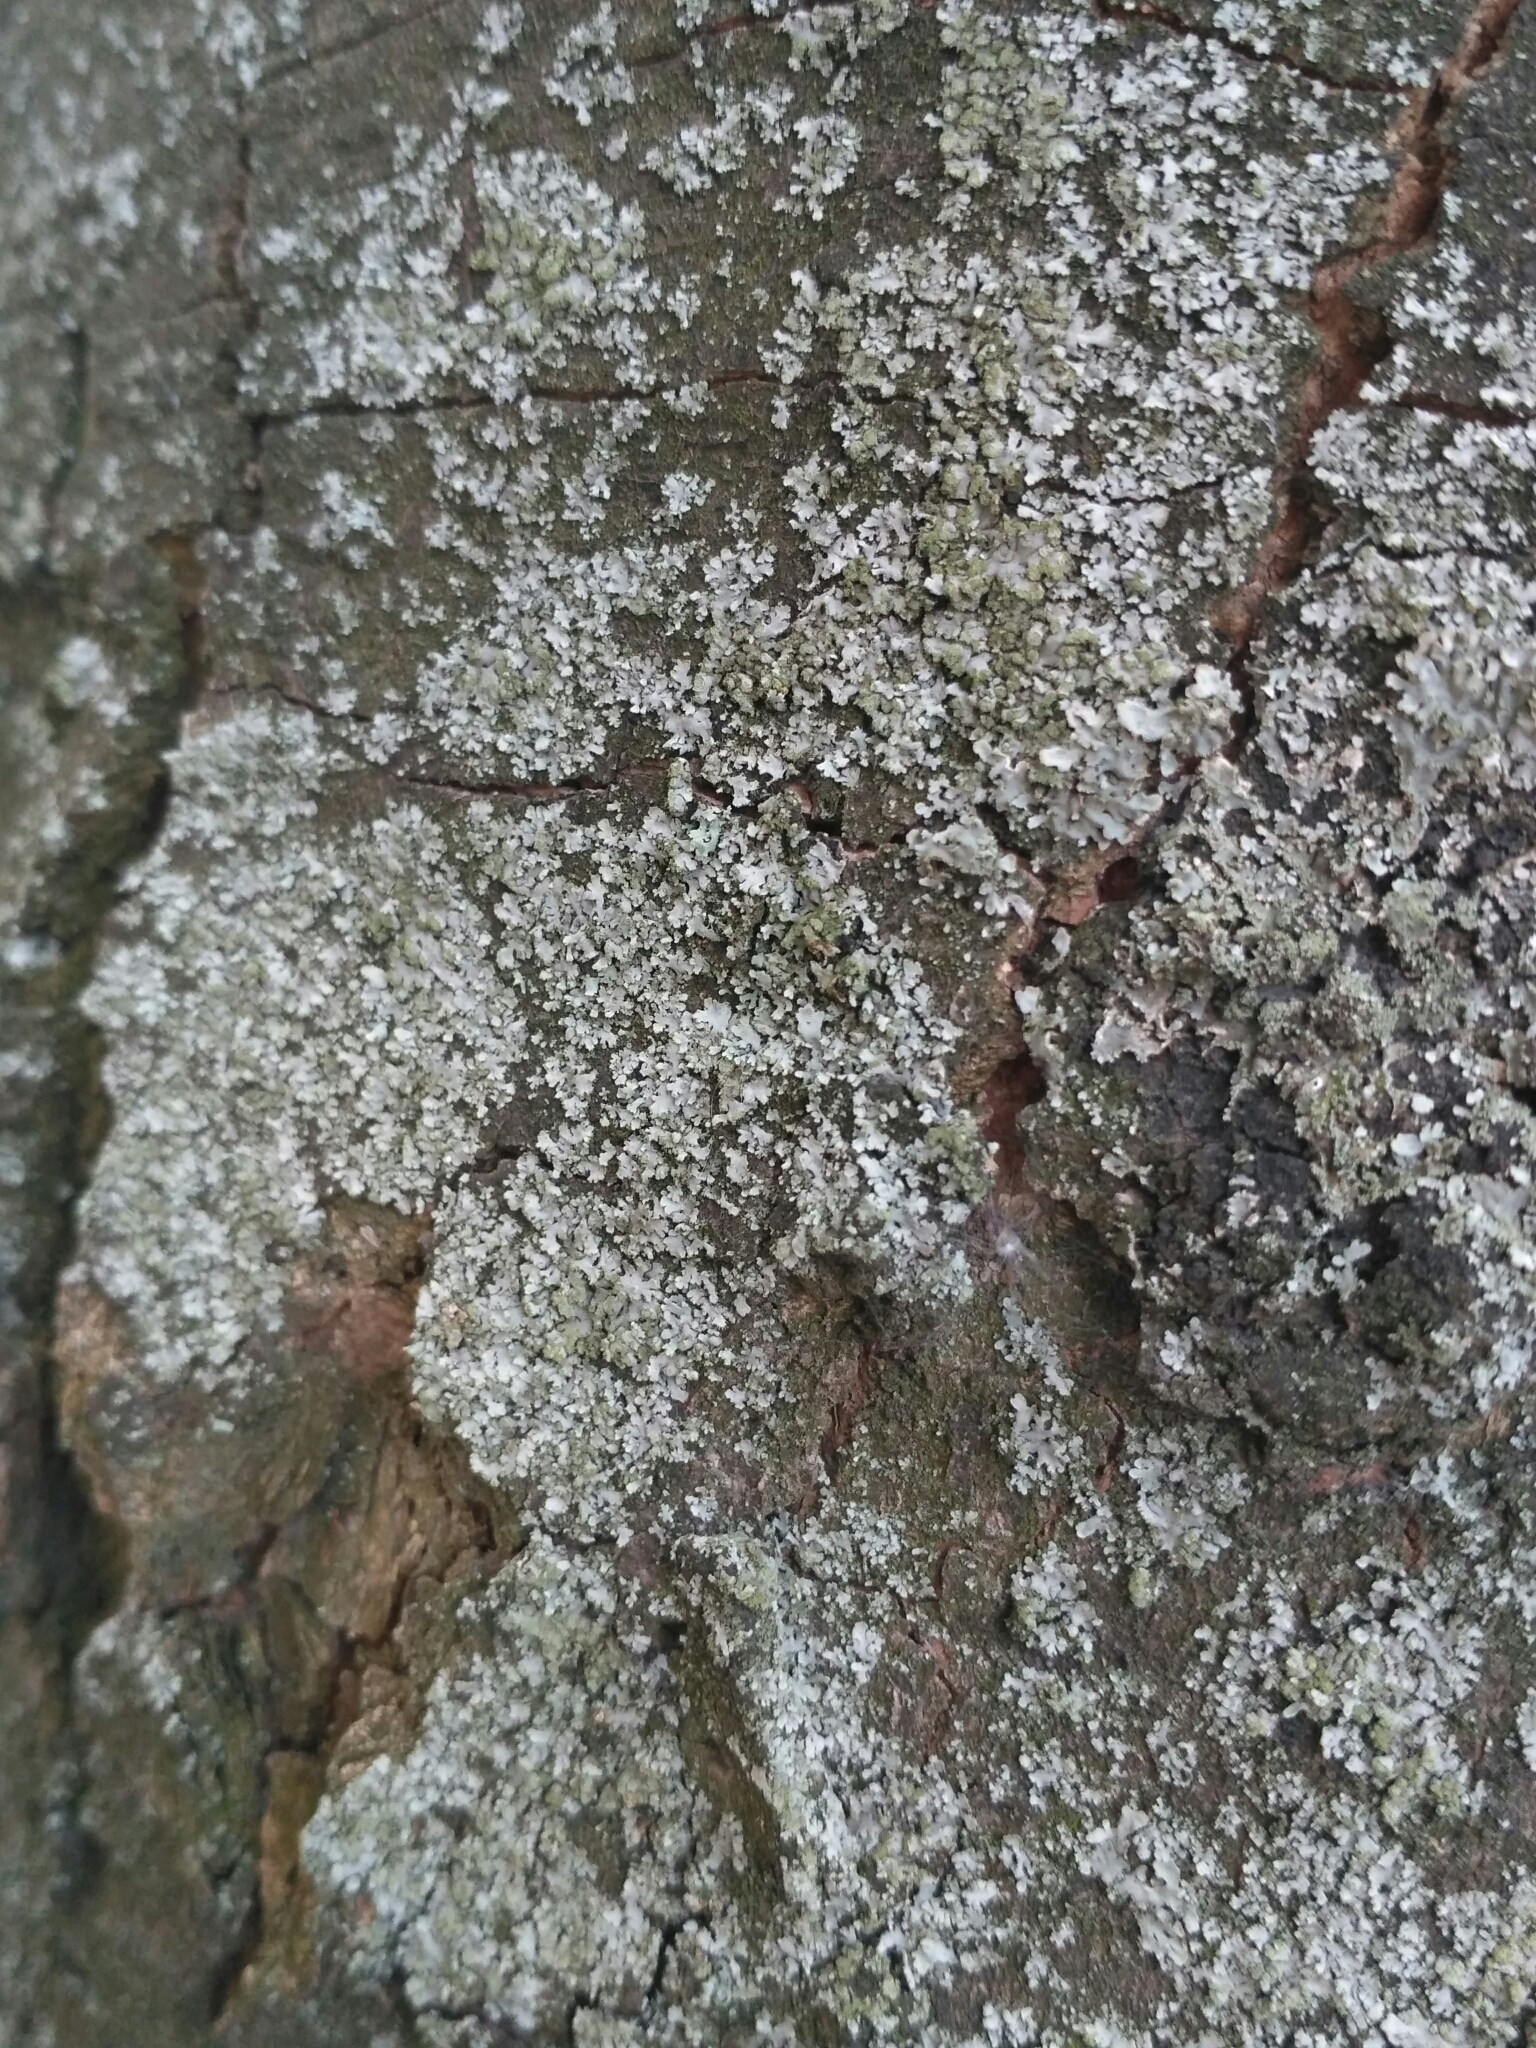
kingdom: Fungi
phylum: Ascomycota
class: Lecanoromycetes
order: Caliciales
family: Physciaceae
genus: Phaeophyscia
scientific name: Phaeophyscia orbicularis
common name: Mealy shadow lichen
